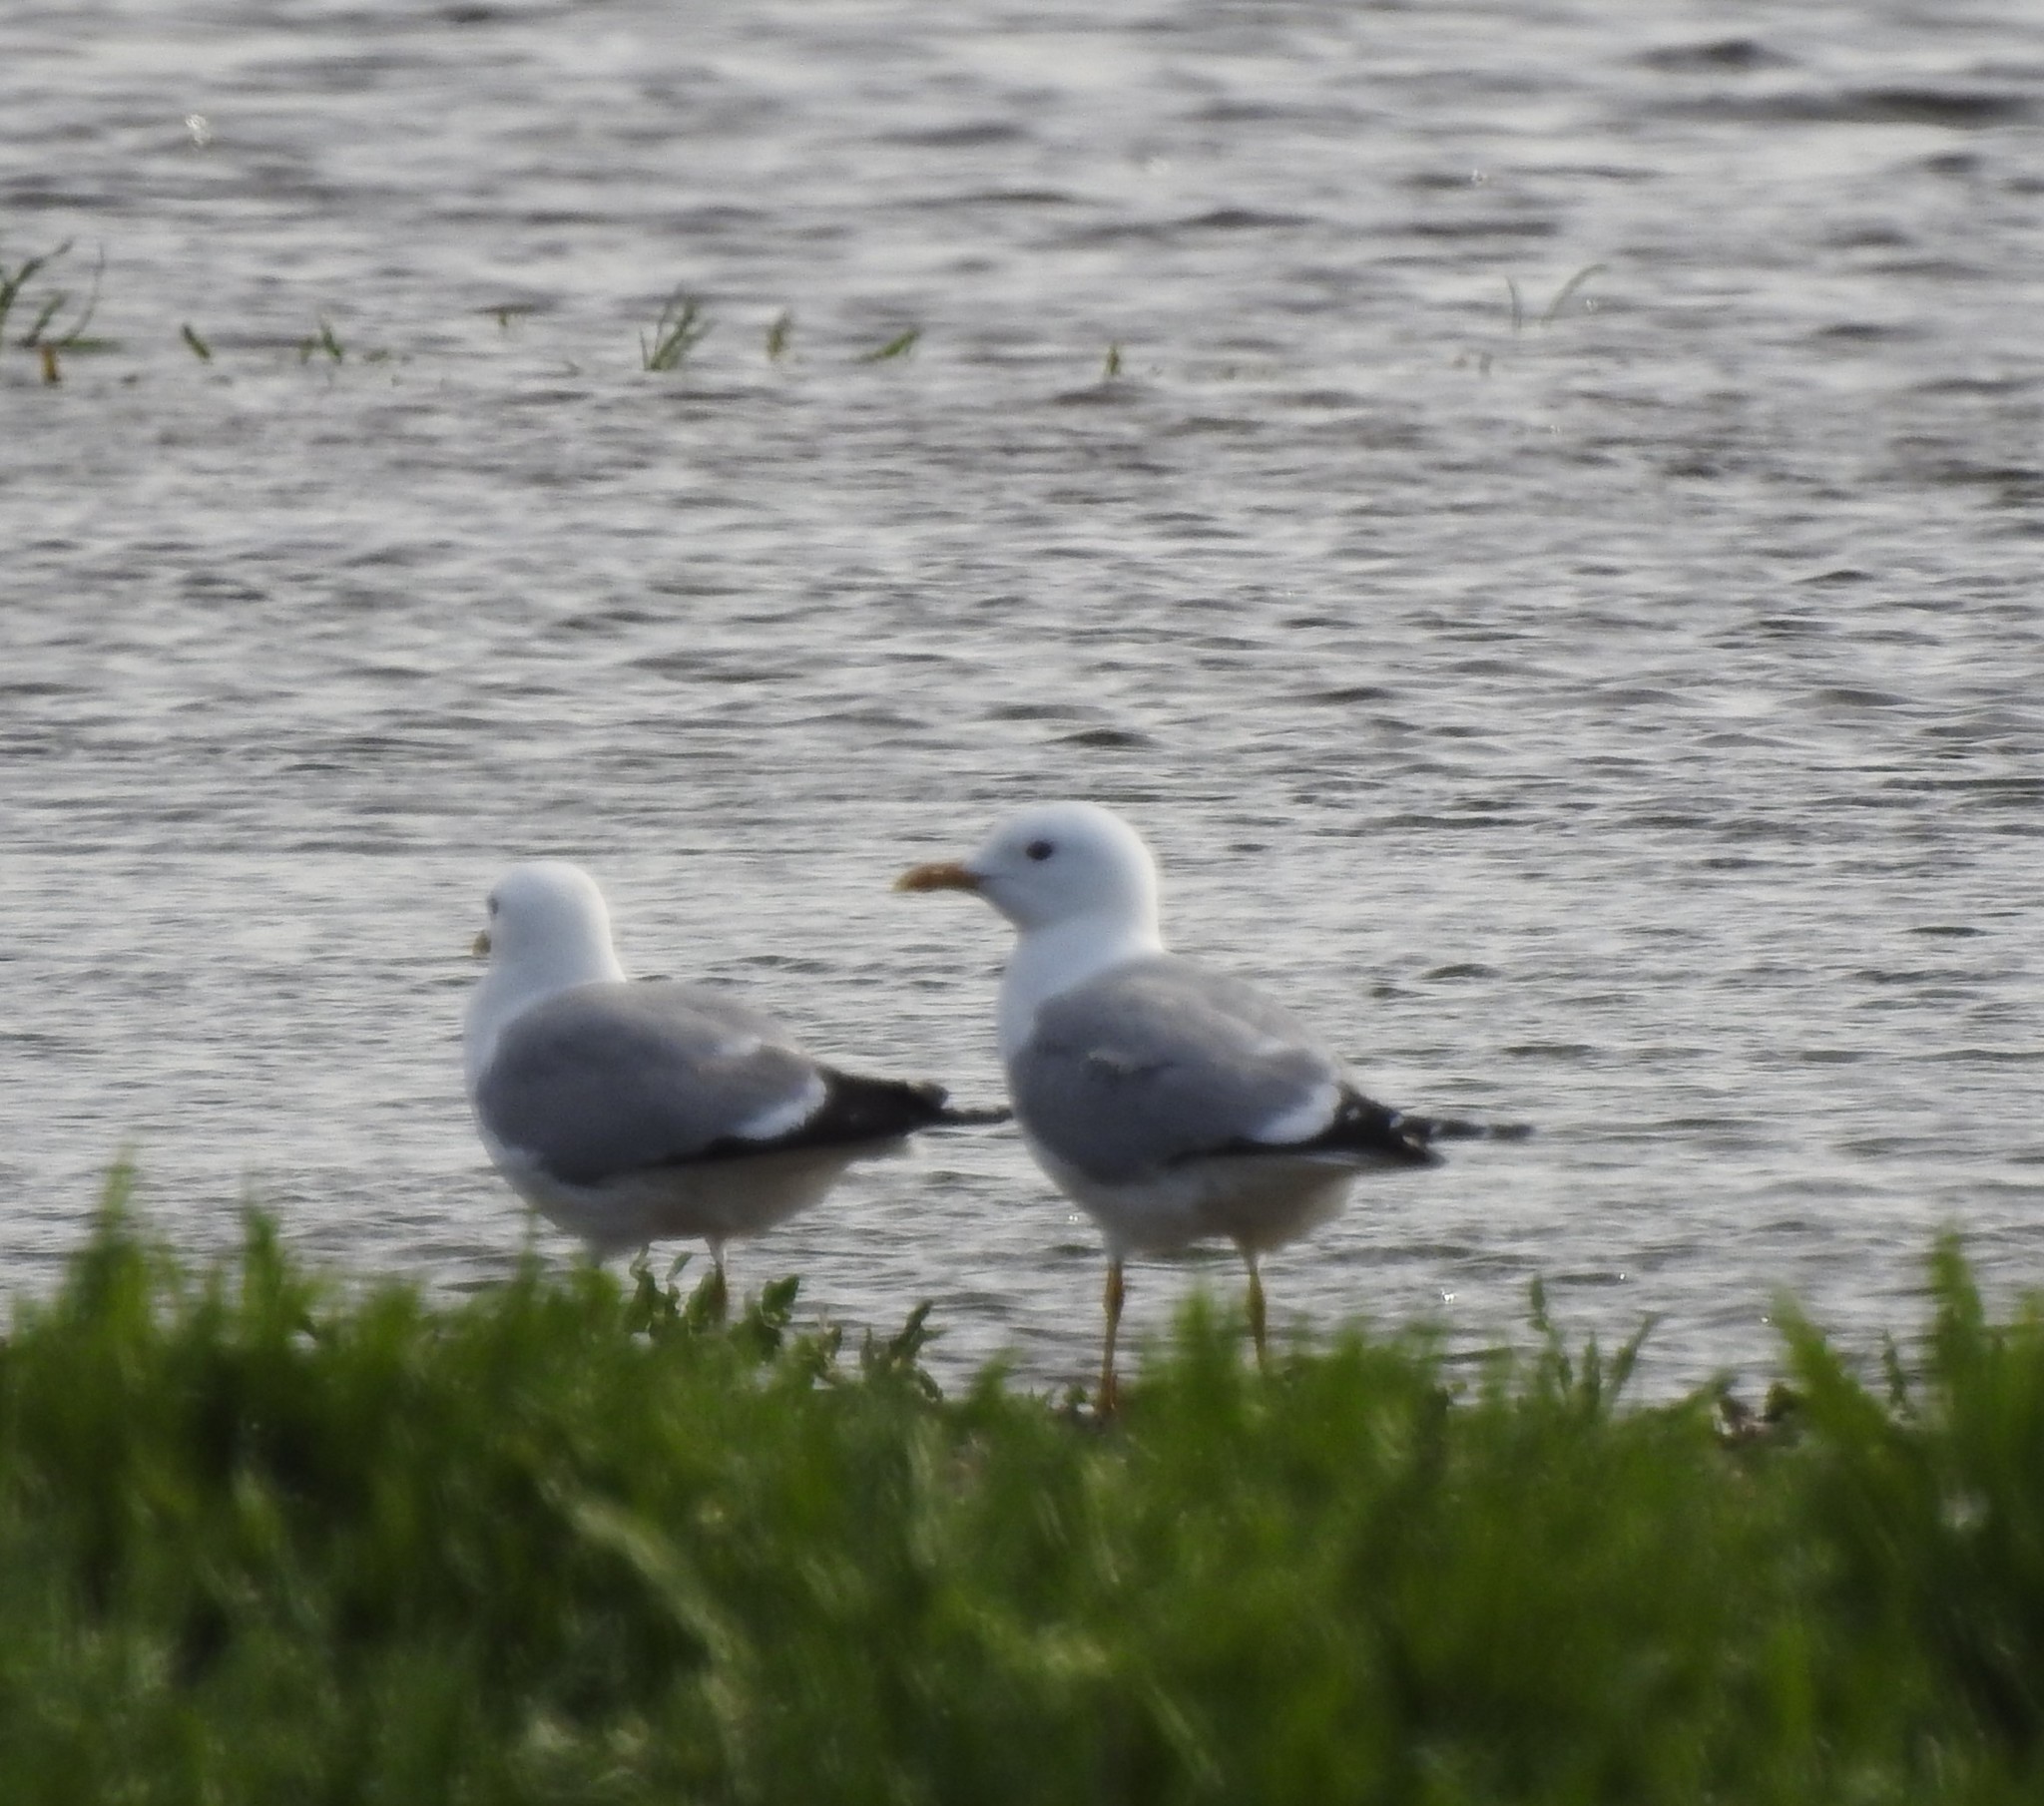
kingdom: Animalia
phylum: Chordata
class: Aves
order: Charadriiformes
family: Laridae
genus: Larus
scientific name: Larus canus
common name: Mew gull
